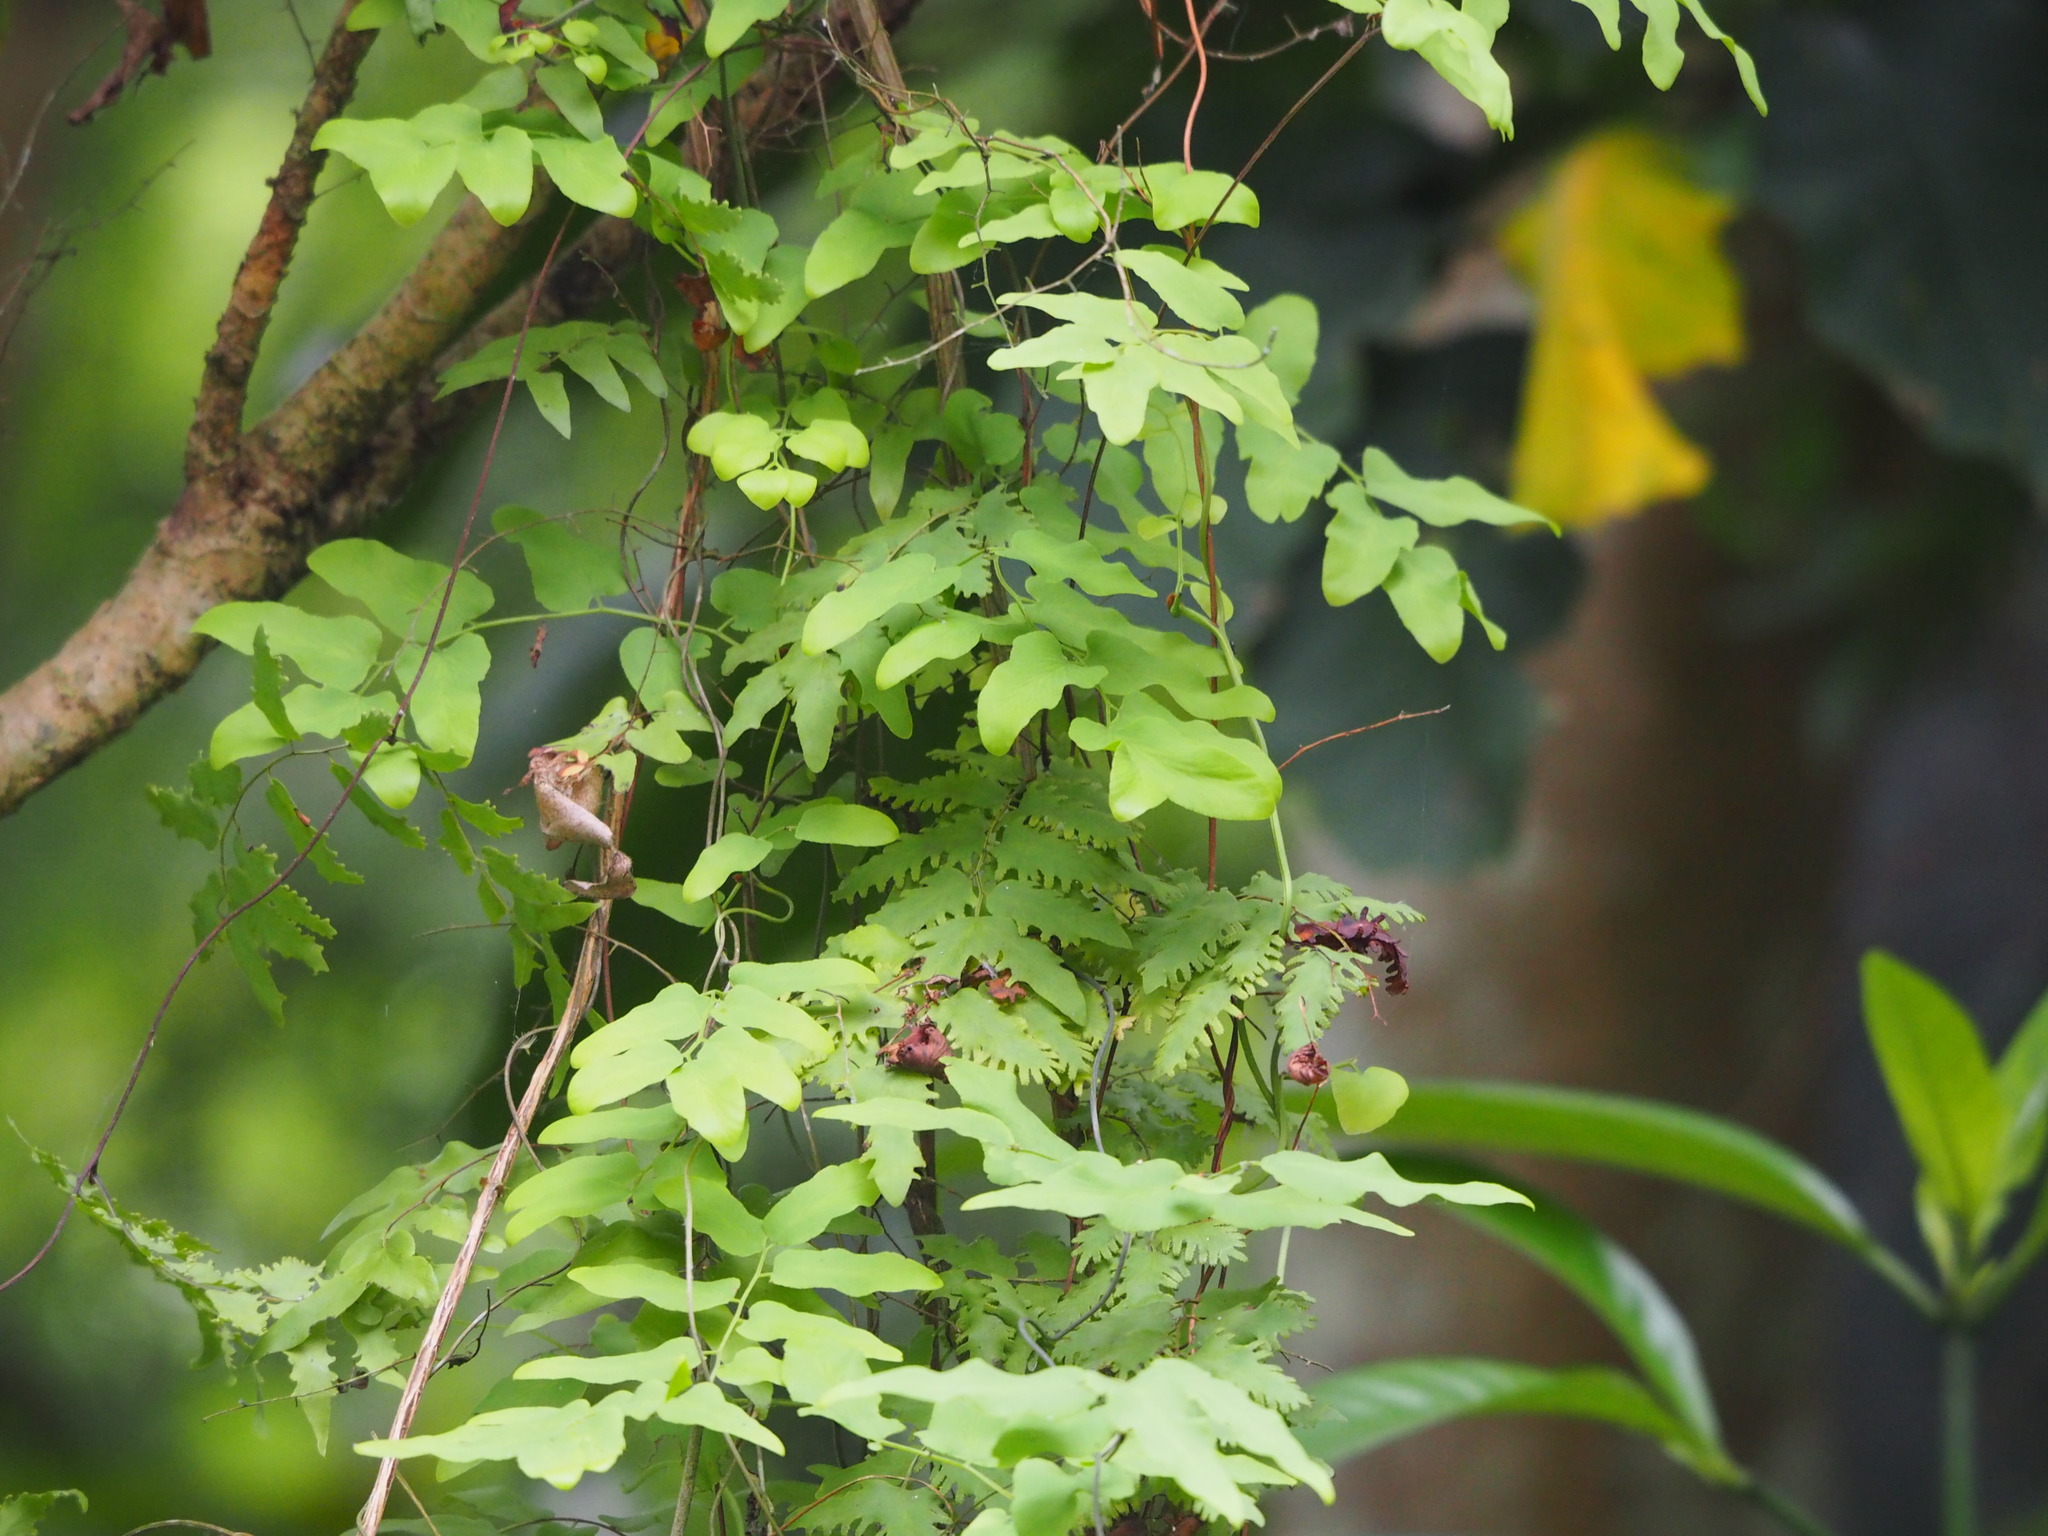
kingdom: Plantae
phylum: Tracheophyta
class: Polypodiopsida
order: Schizaeales
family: Lygodiaceae
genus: Lygodium
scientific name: Lygodium microphyllum
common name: Small-leaf climbing fern
